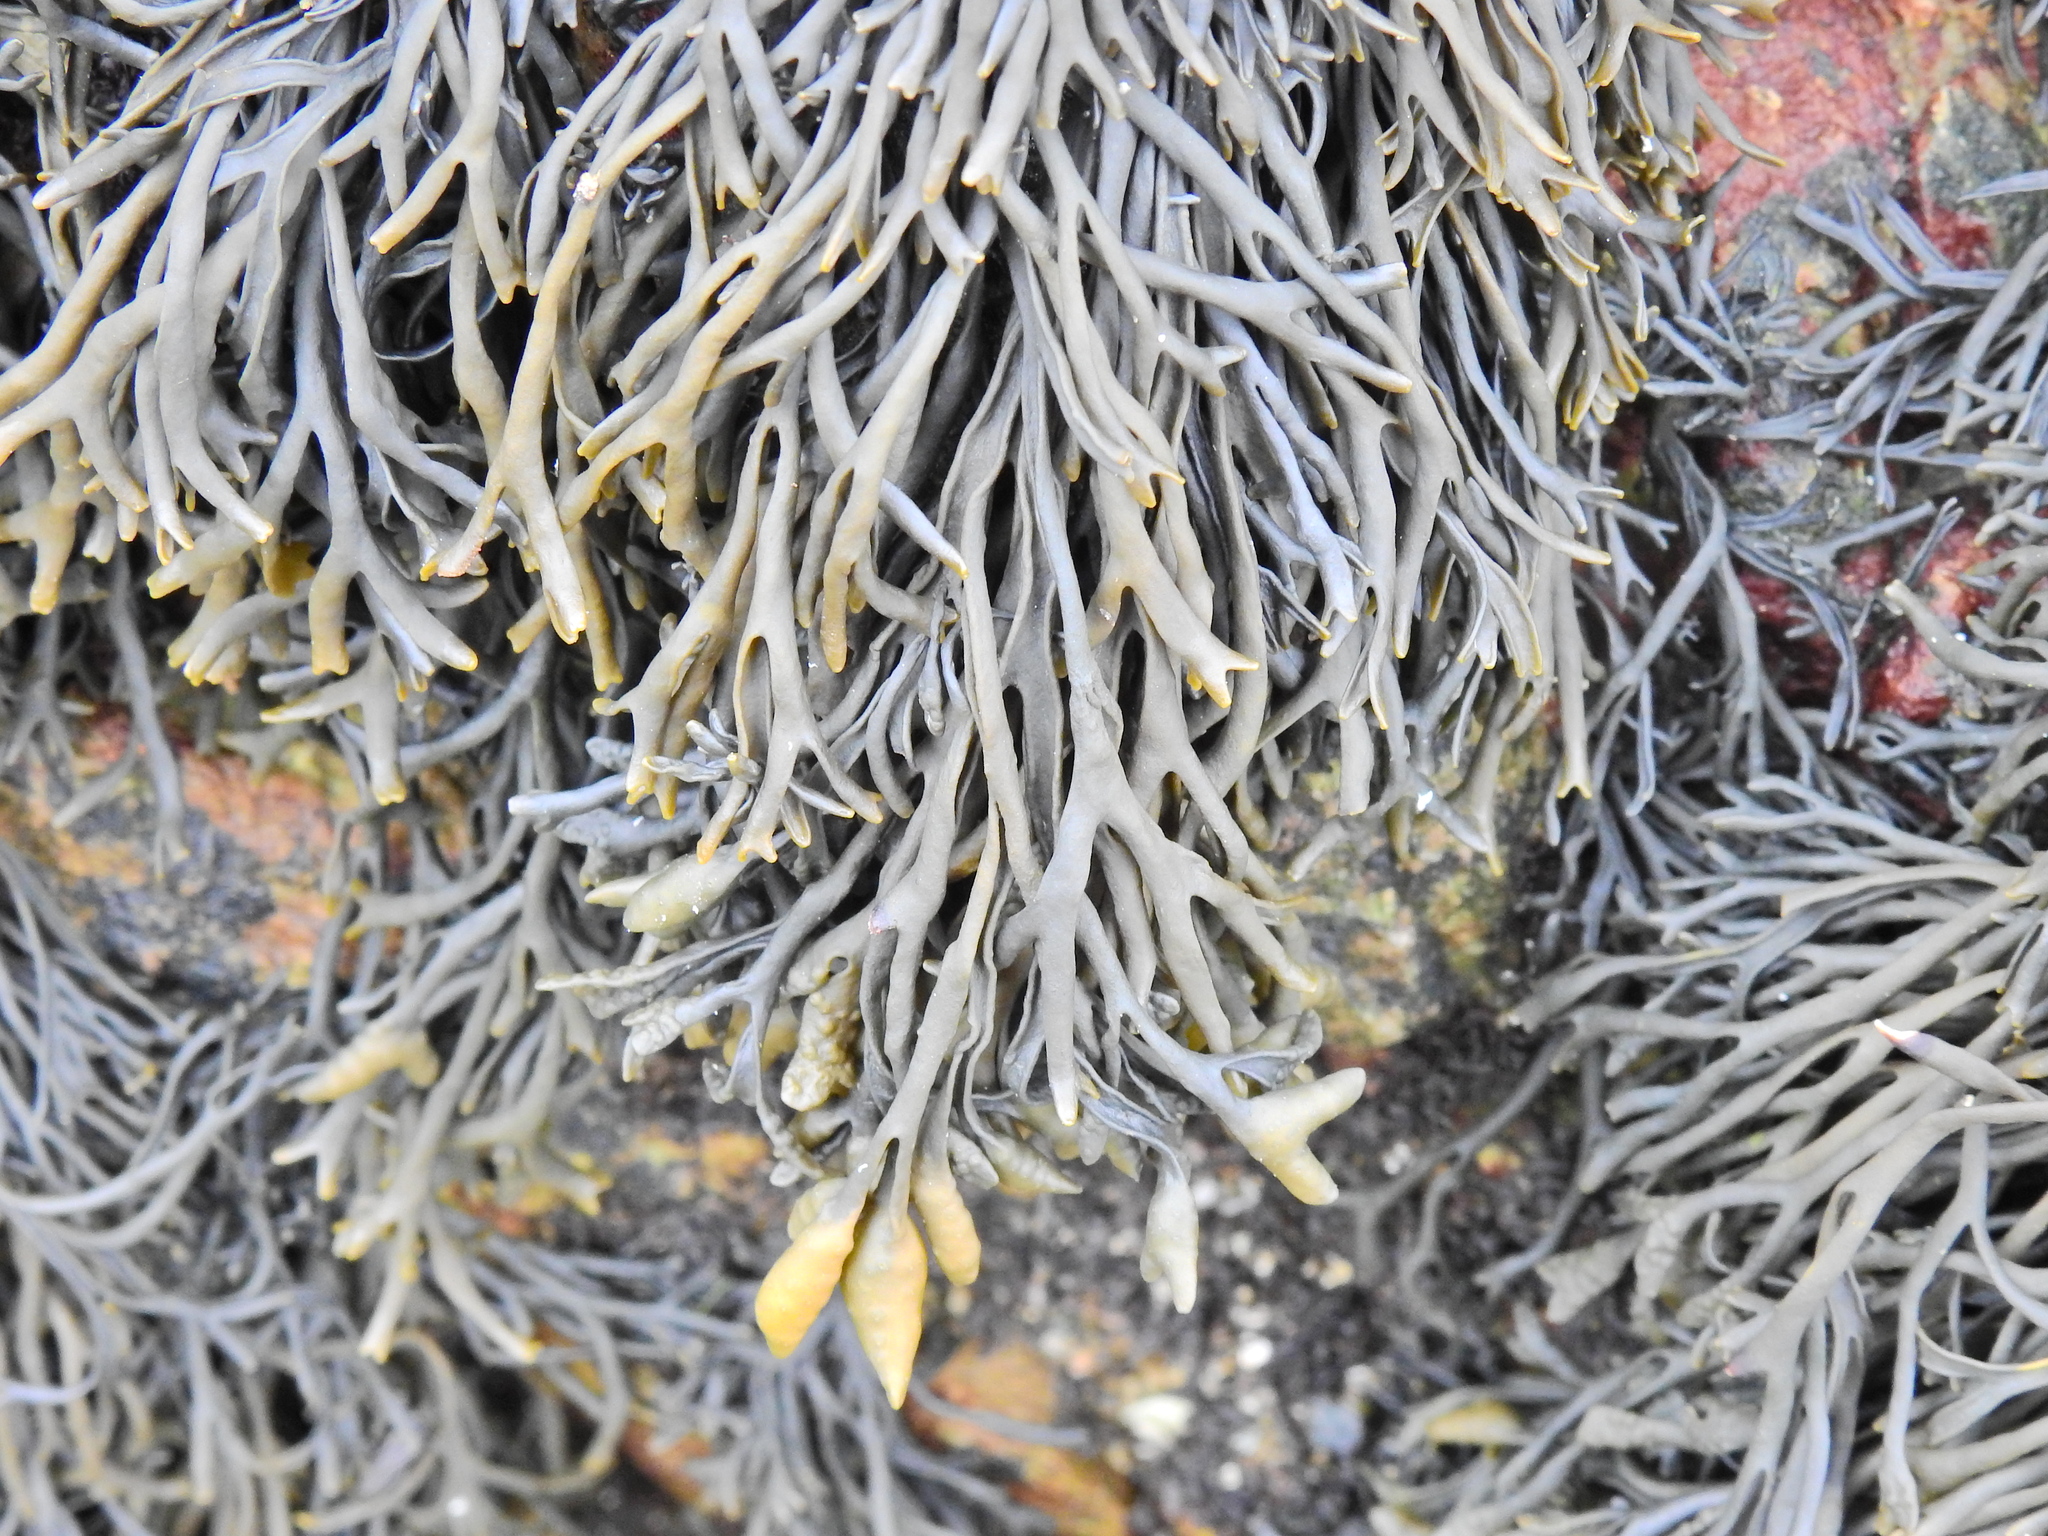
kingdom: Chromista
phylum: Ochrophyta
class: Phaeophyceae
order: Fucales
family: Fucaceae
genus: Pelvetia
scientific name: Pelvetia canaliculata
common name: Channelled wrack
